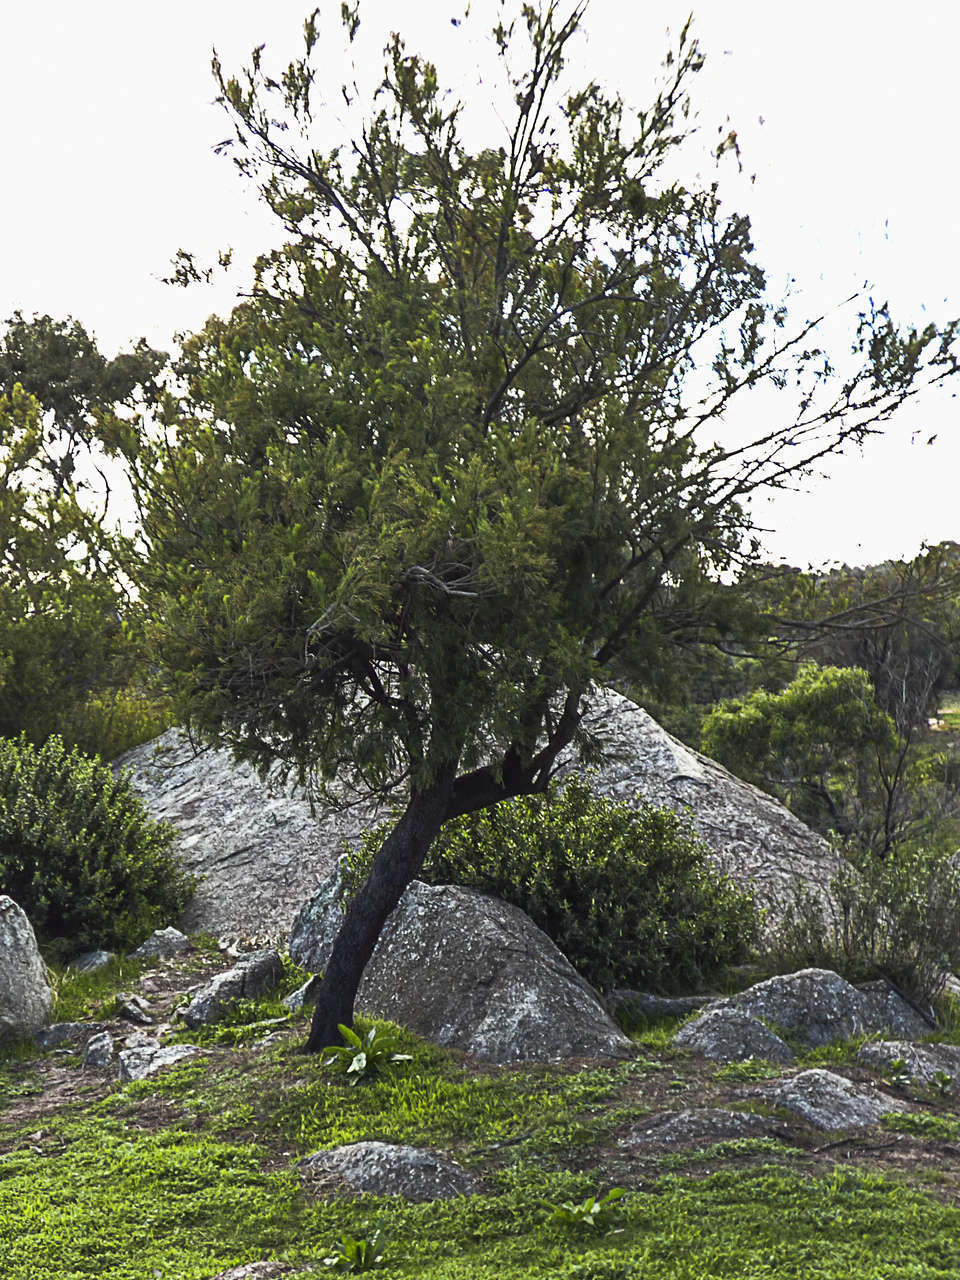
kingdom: Plantae
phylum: Tracheophyta
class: Magnoliopsida
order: Santalales
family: Santalaceae
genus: Exocarpos
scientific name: Exocarpos cupressiformis
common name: Cherry ballart
